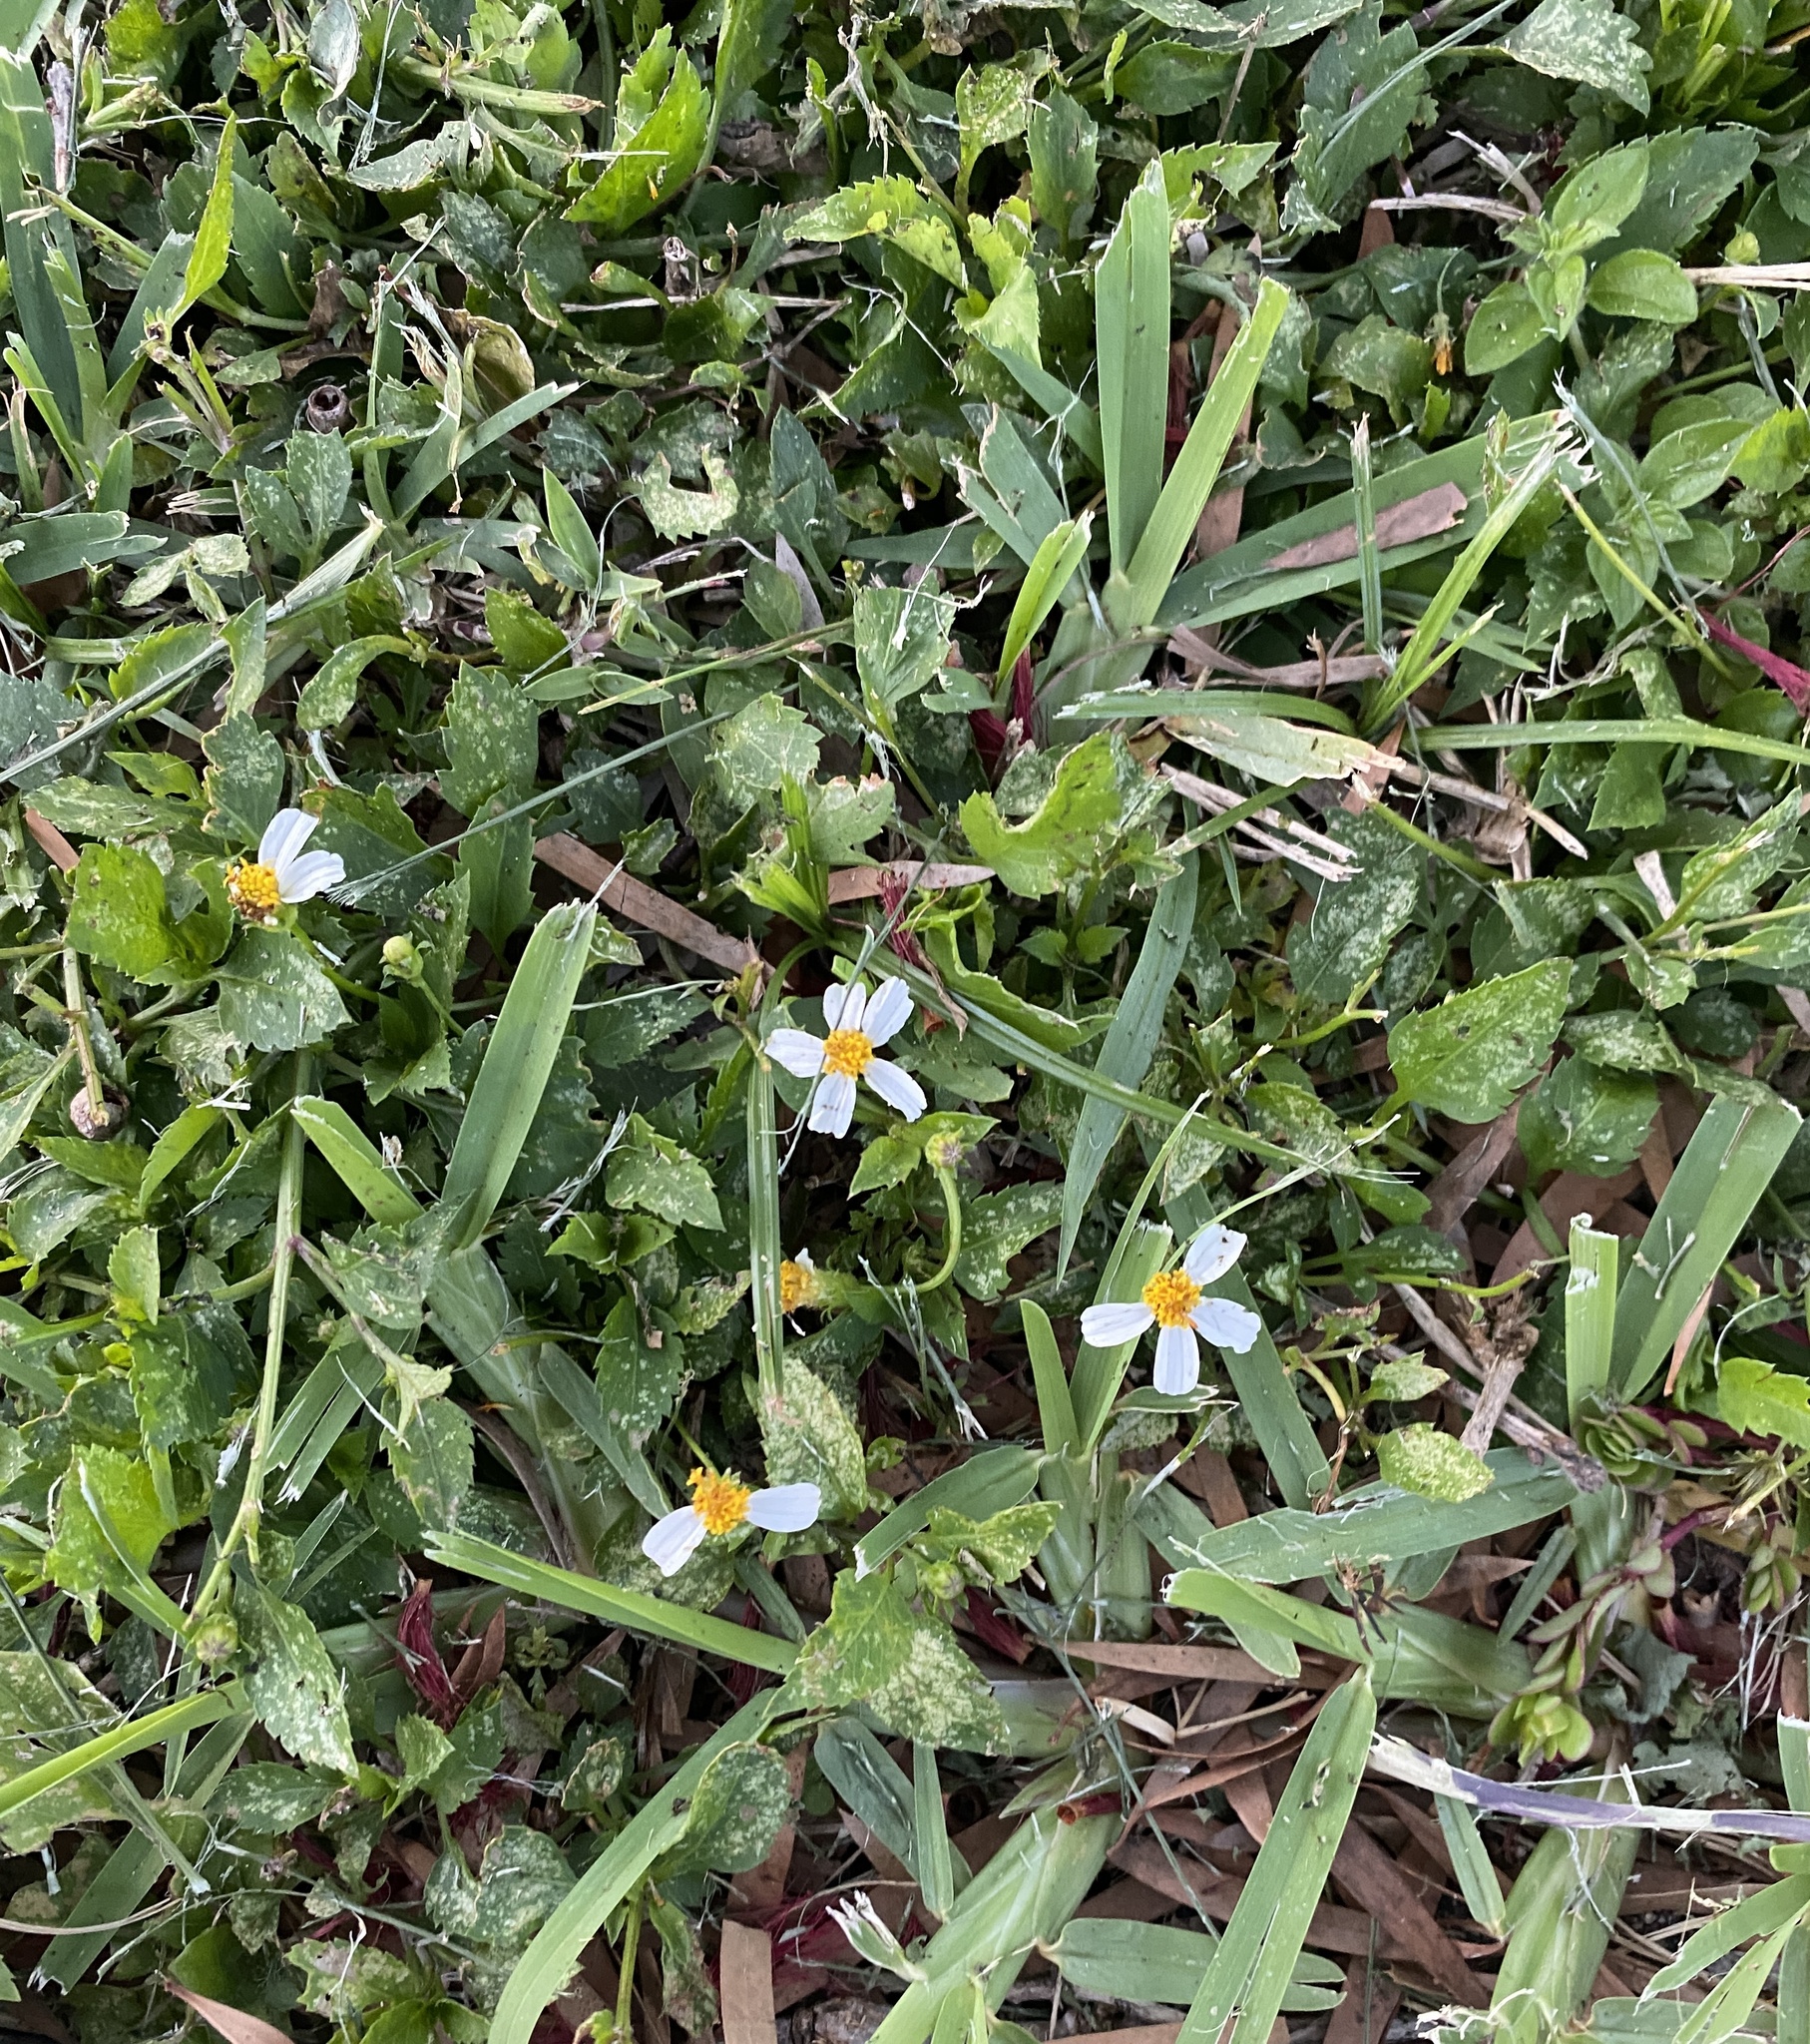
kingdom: Plantae
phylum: Tracheophyta
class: Magnoliopsida
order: Asterales
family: Asteraceae
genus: Bidens
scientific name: Bidens alba
